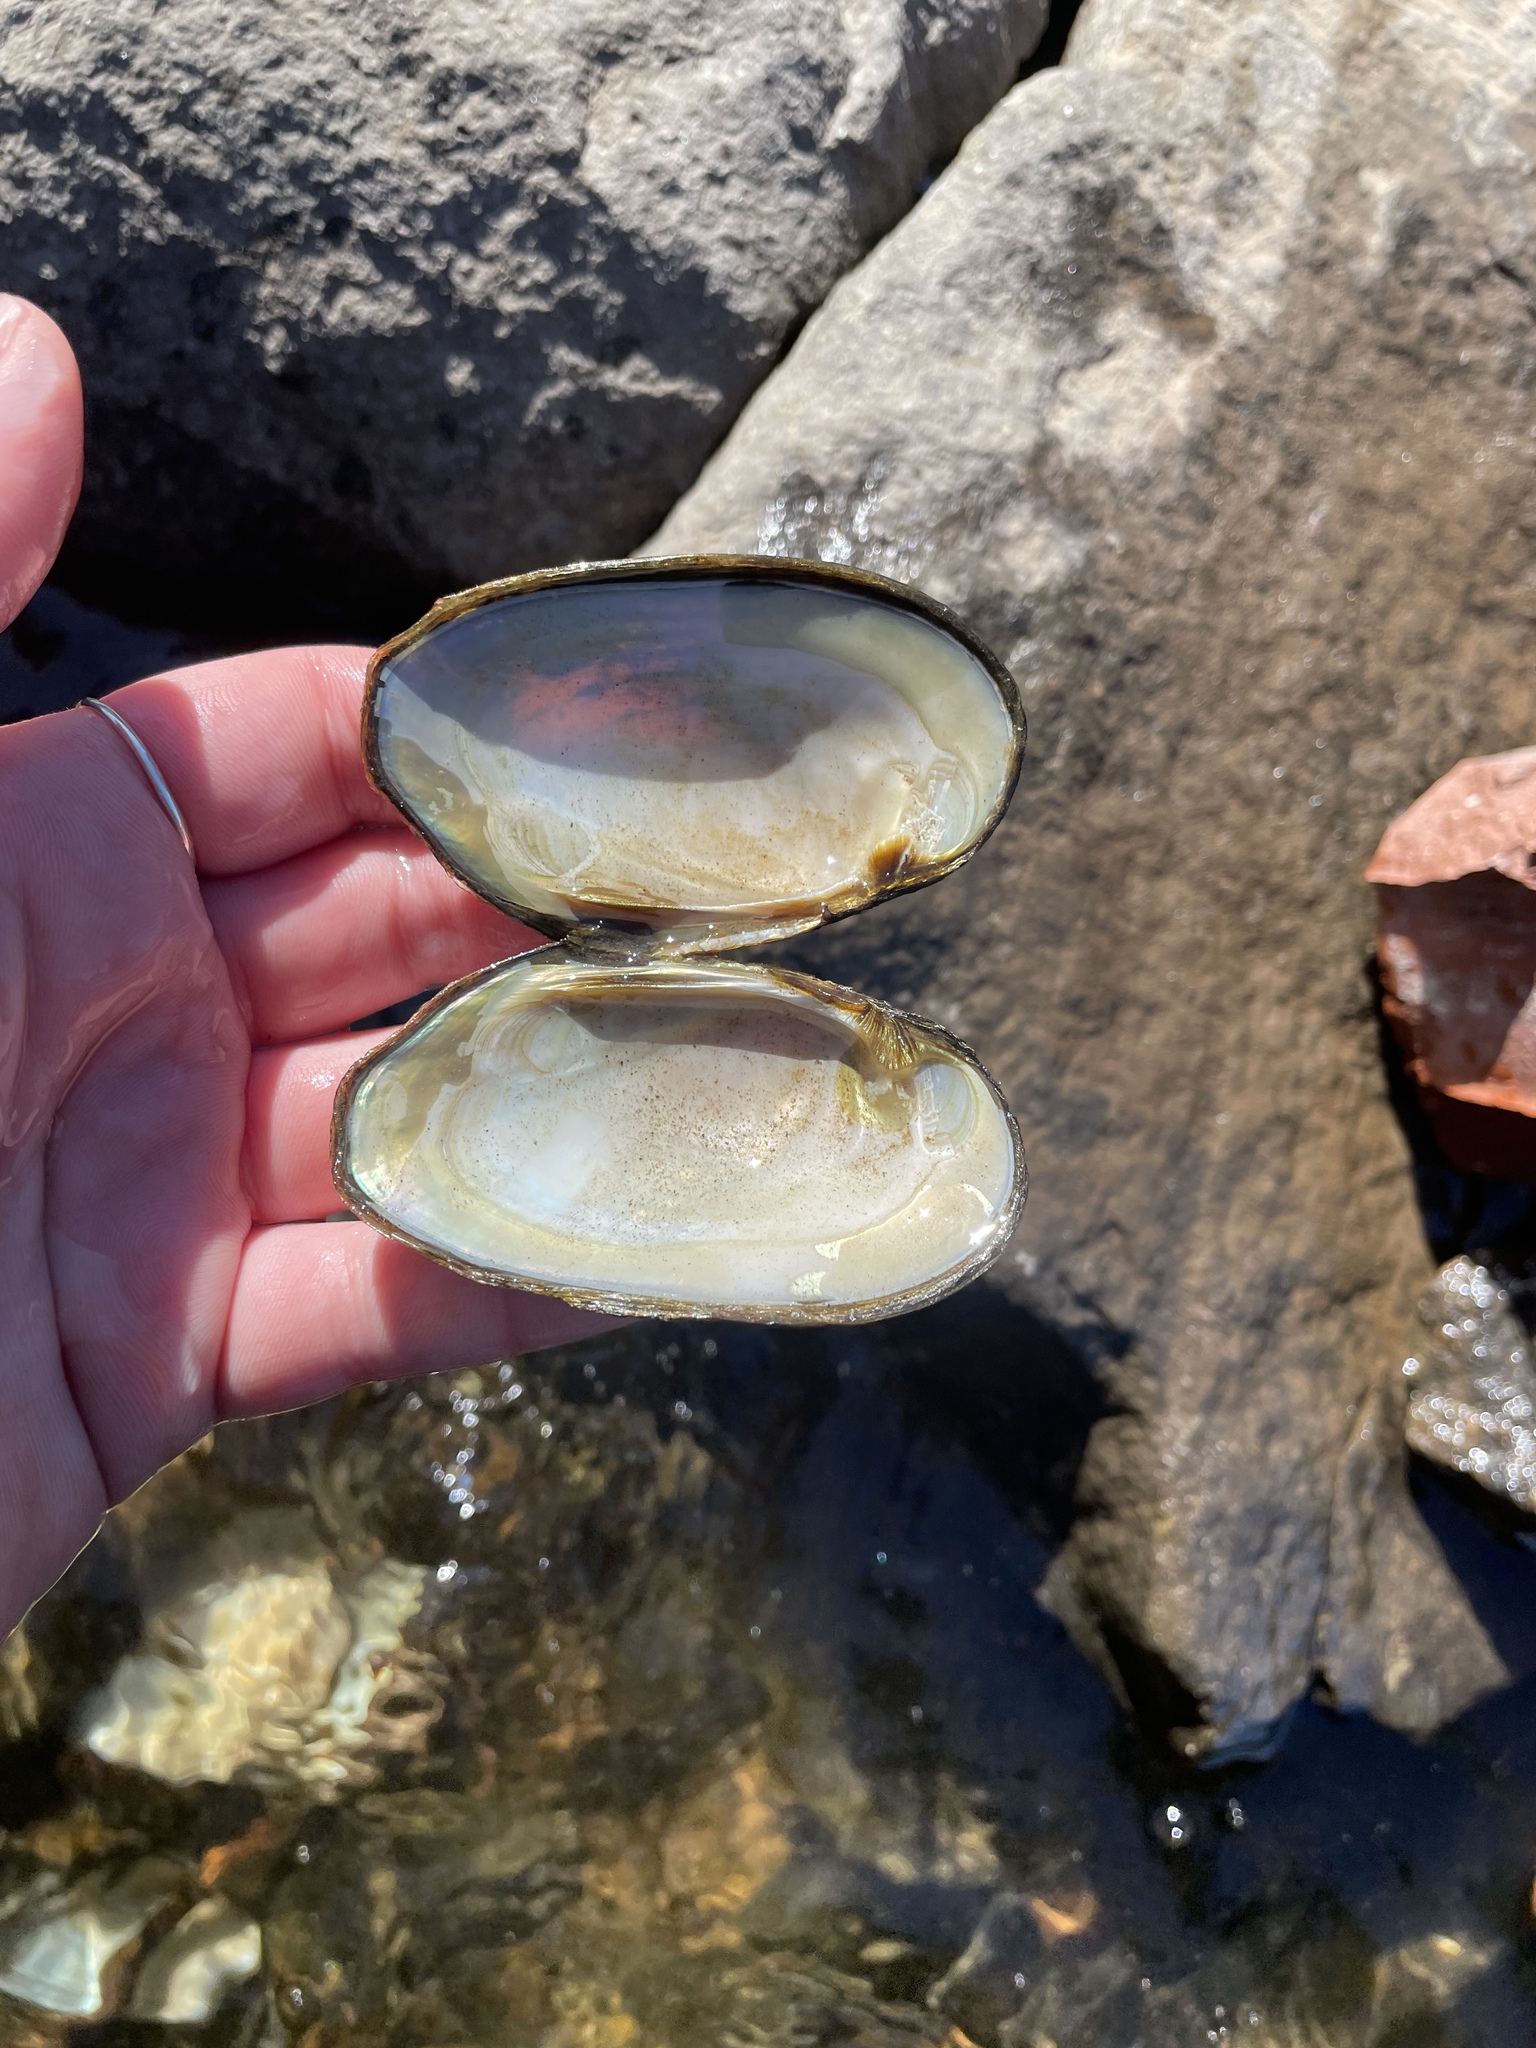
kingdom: Animalia
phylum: Mollusca
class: Bivalvia
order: Unionida
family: Unionidae
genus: Elliptio
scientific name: Elliptio complanata
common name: Eastern elliptio
